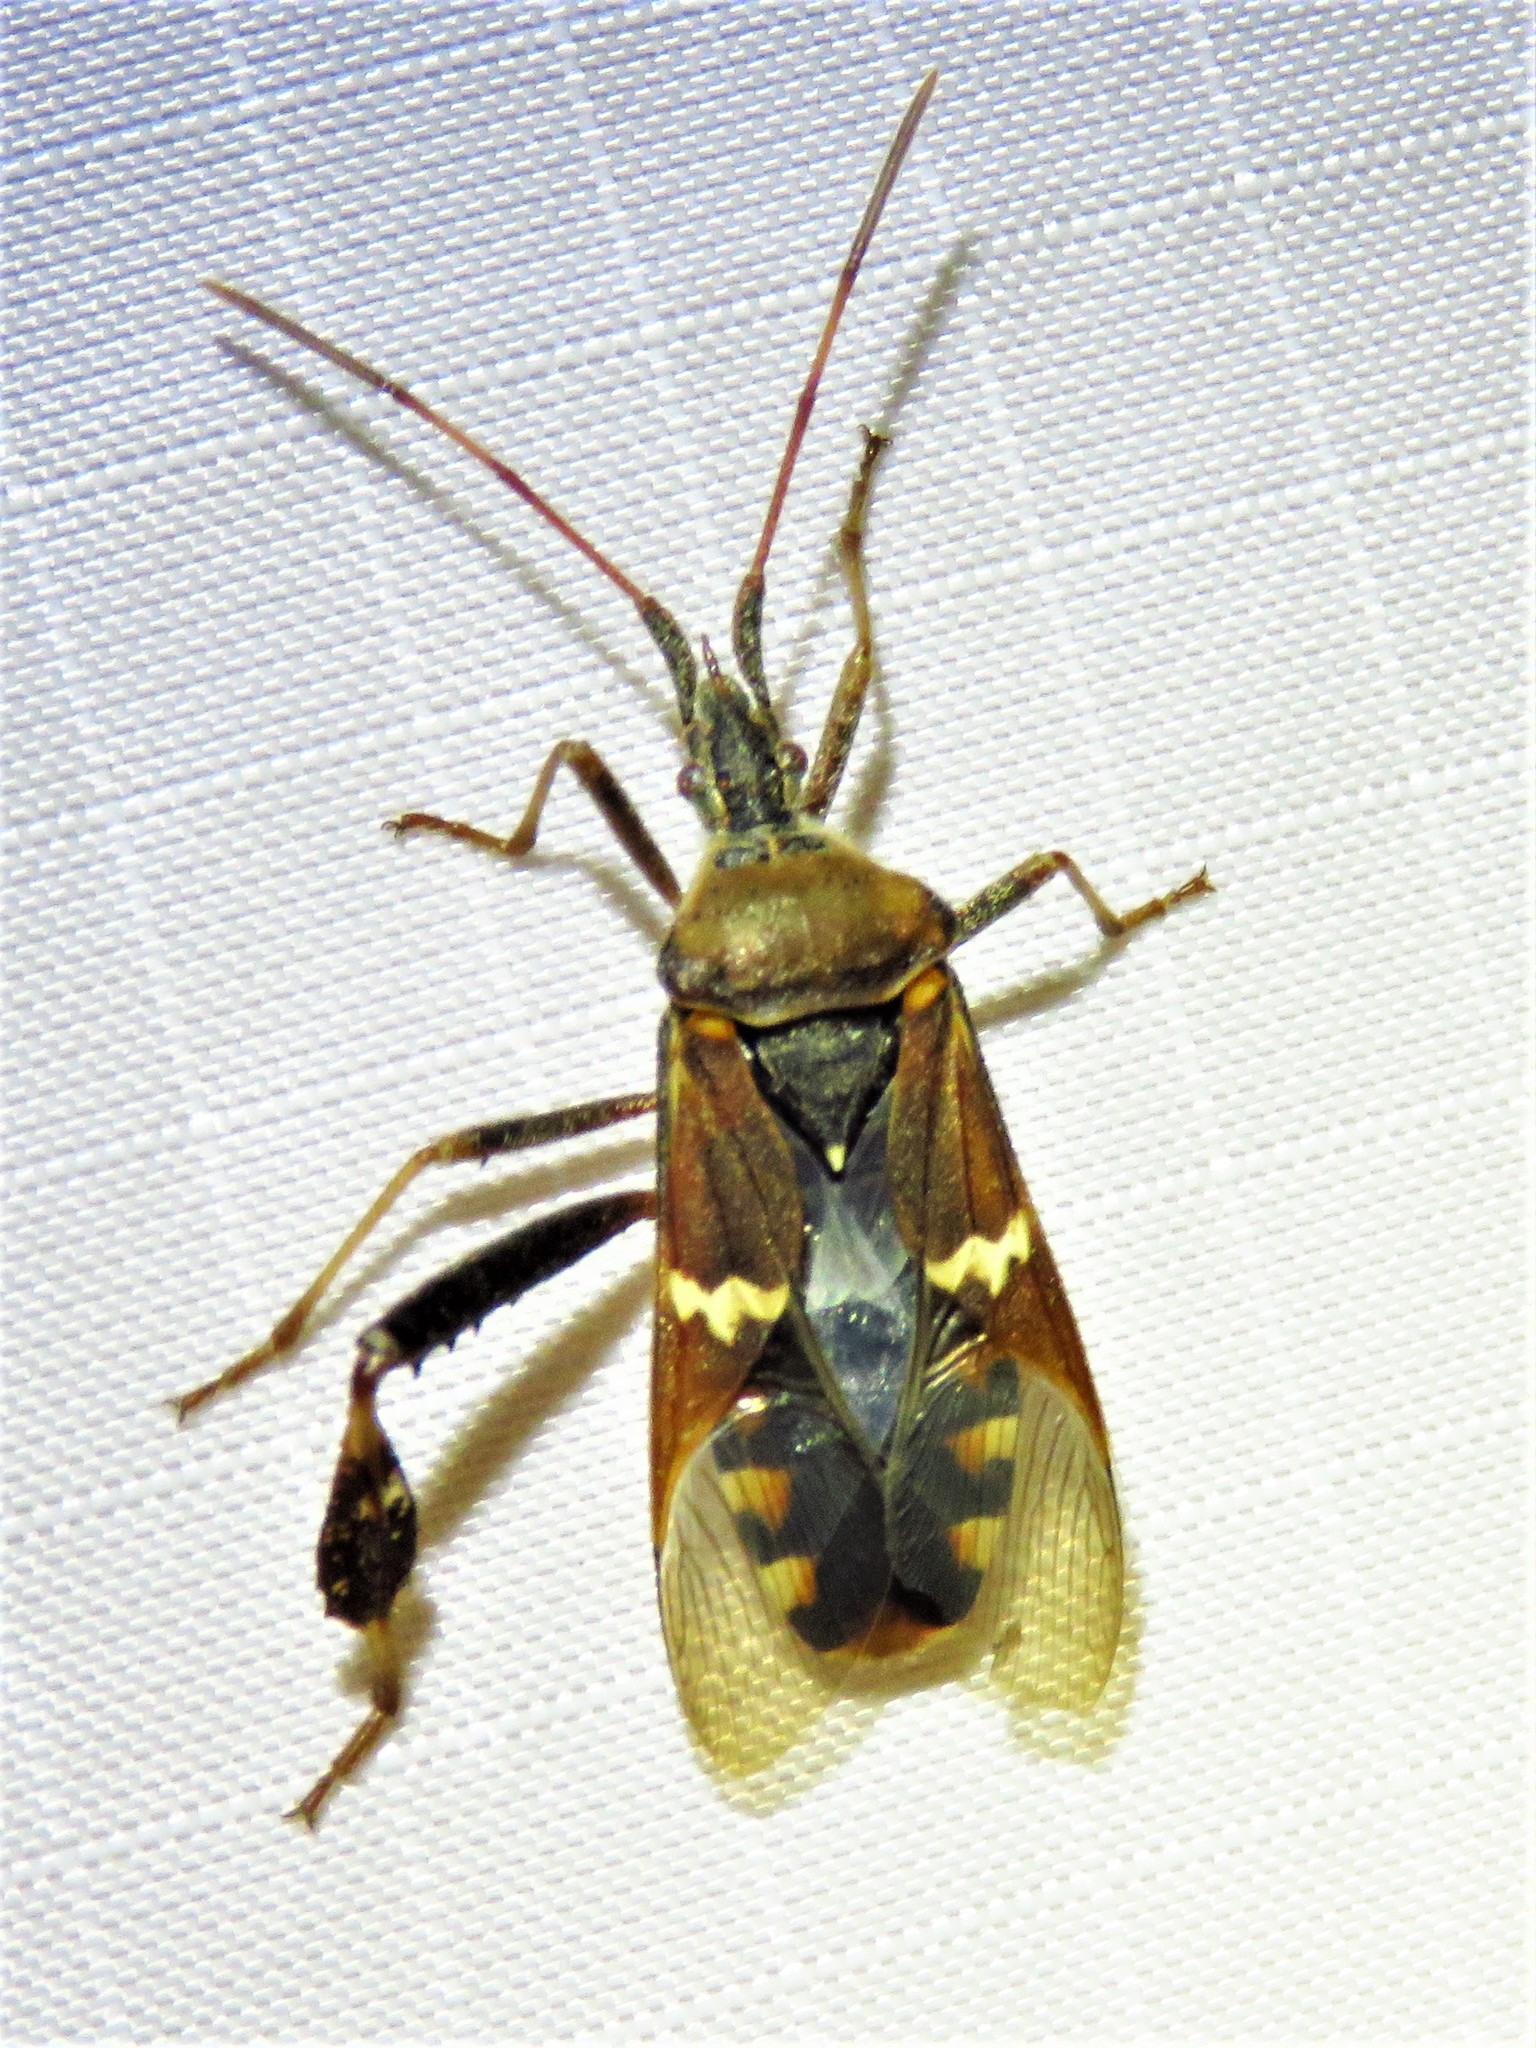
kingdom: Animalia
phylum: Arthropoda
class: Insecta
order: Hemiptera
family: Coreidae
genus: Leptoglossus
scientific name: Leptoglossus clypealis
